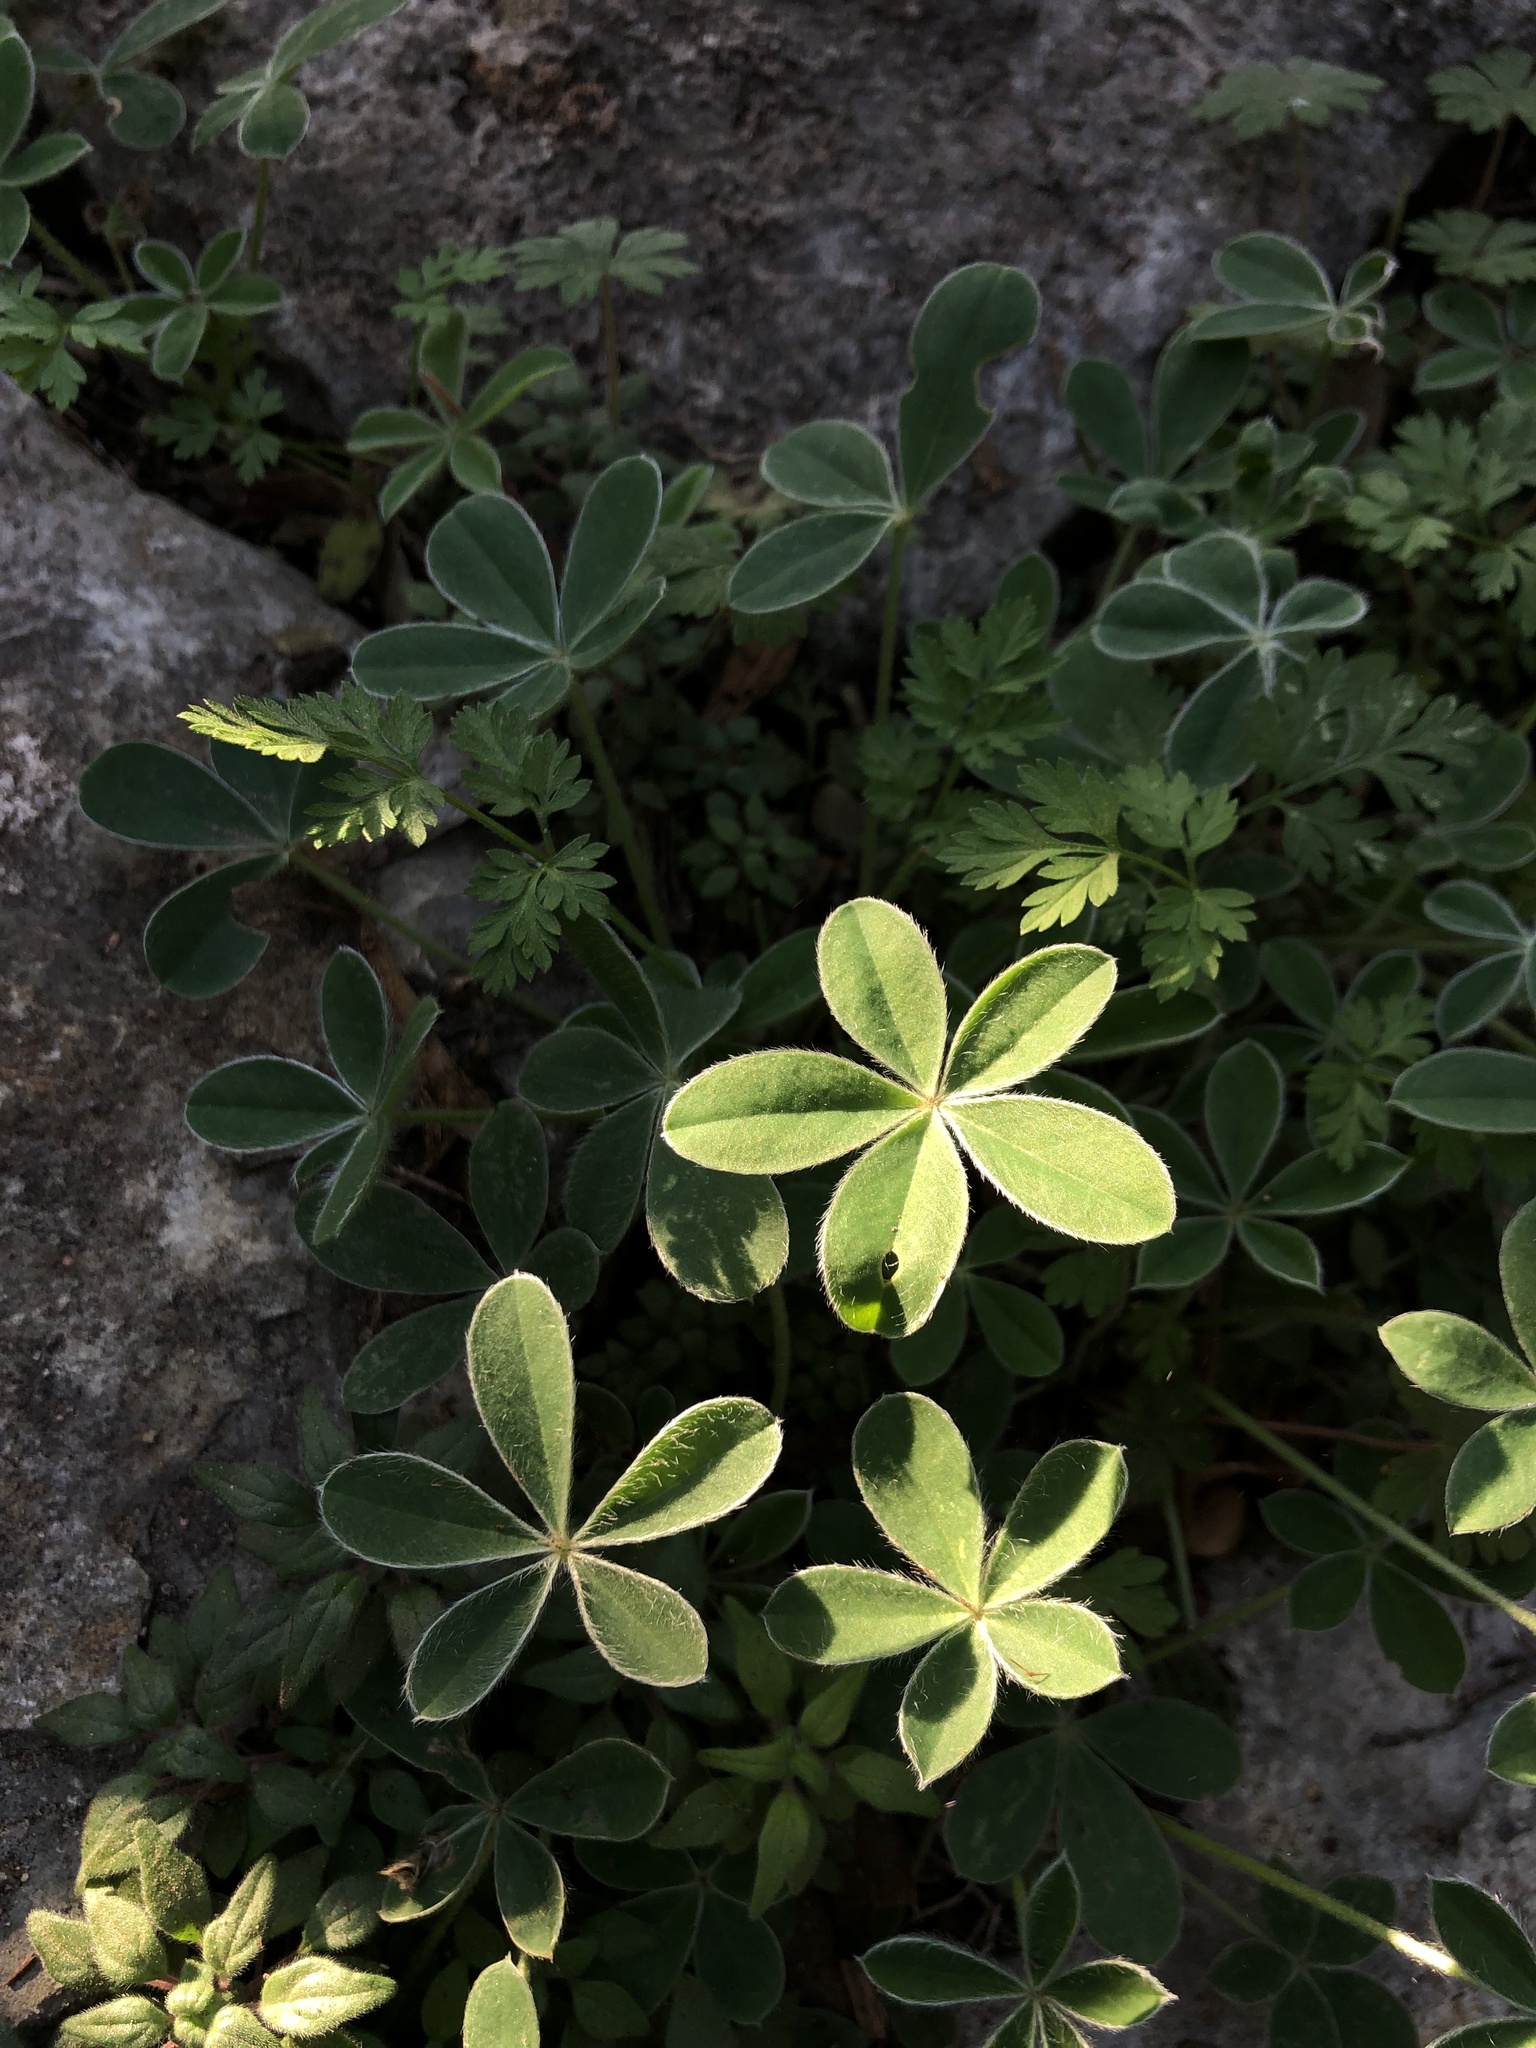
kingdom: Plantae
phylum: Tracheophyta
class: Magnoliopsida
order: Fabales
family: Fabaceae
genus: Lupinus
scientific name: Lupinus texensis
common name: Texas bluebonnet
